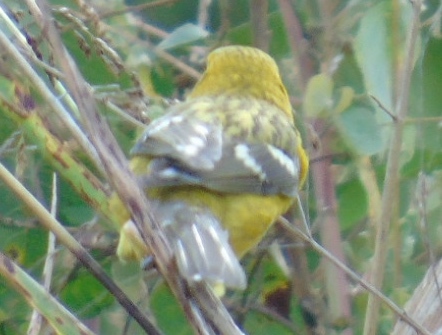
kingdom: Animalia
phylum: Chordata
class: Aves
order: Passeriformes
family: Cardinalidae
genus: Pheucticus
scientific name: Pheucticus chrysopeplus
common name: Yellow grosbeak
